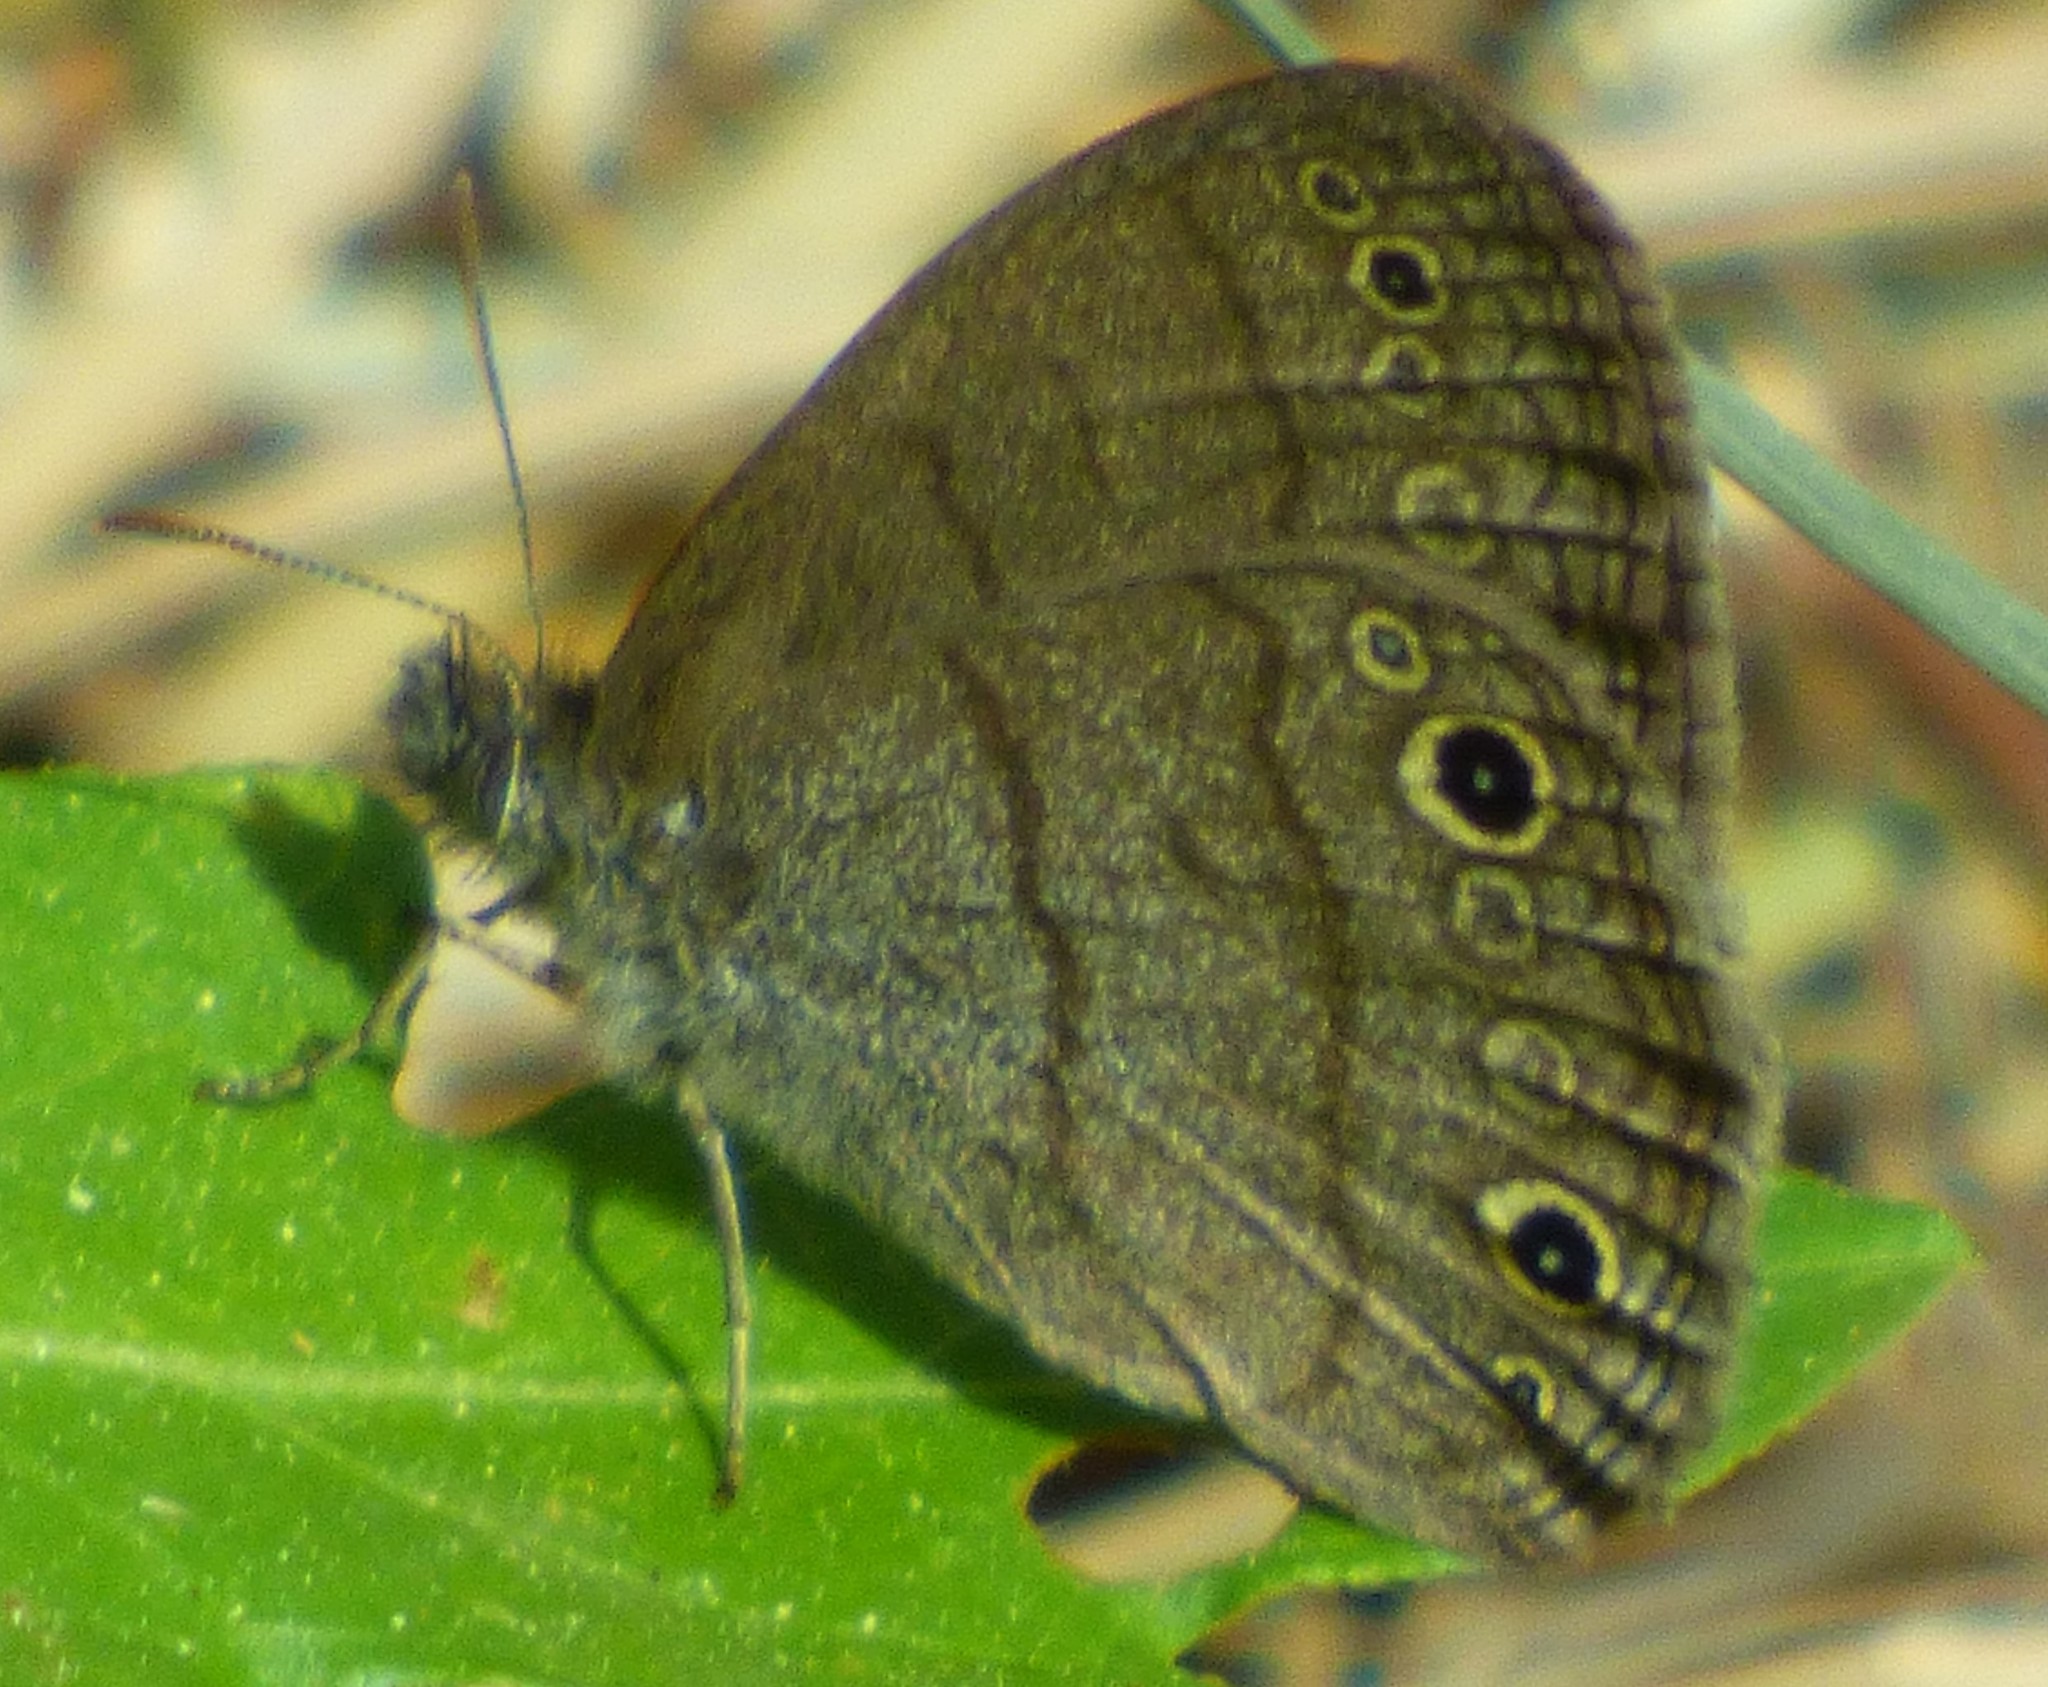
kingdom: Animalia
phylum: Arthropoda
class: Insecta
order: Lepidoptera
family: Nymphalidae
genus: Hermeuptychia
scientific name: Hermeuptychia hermes
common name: Hermes satyr
